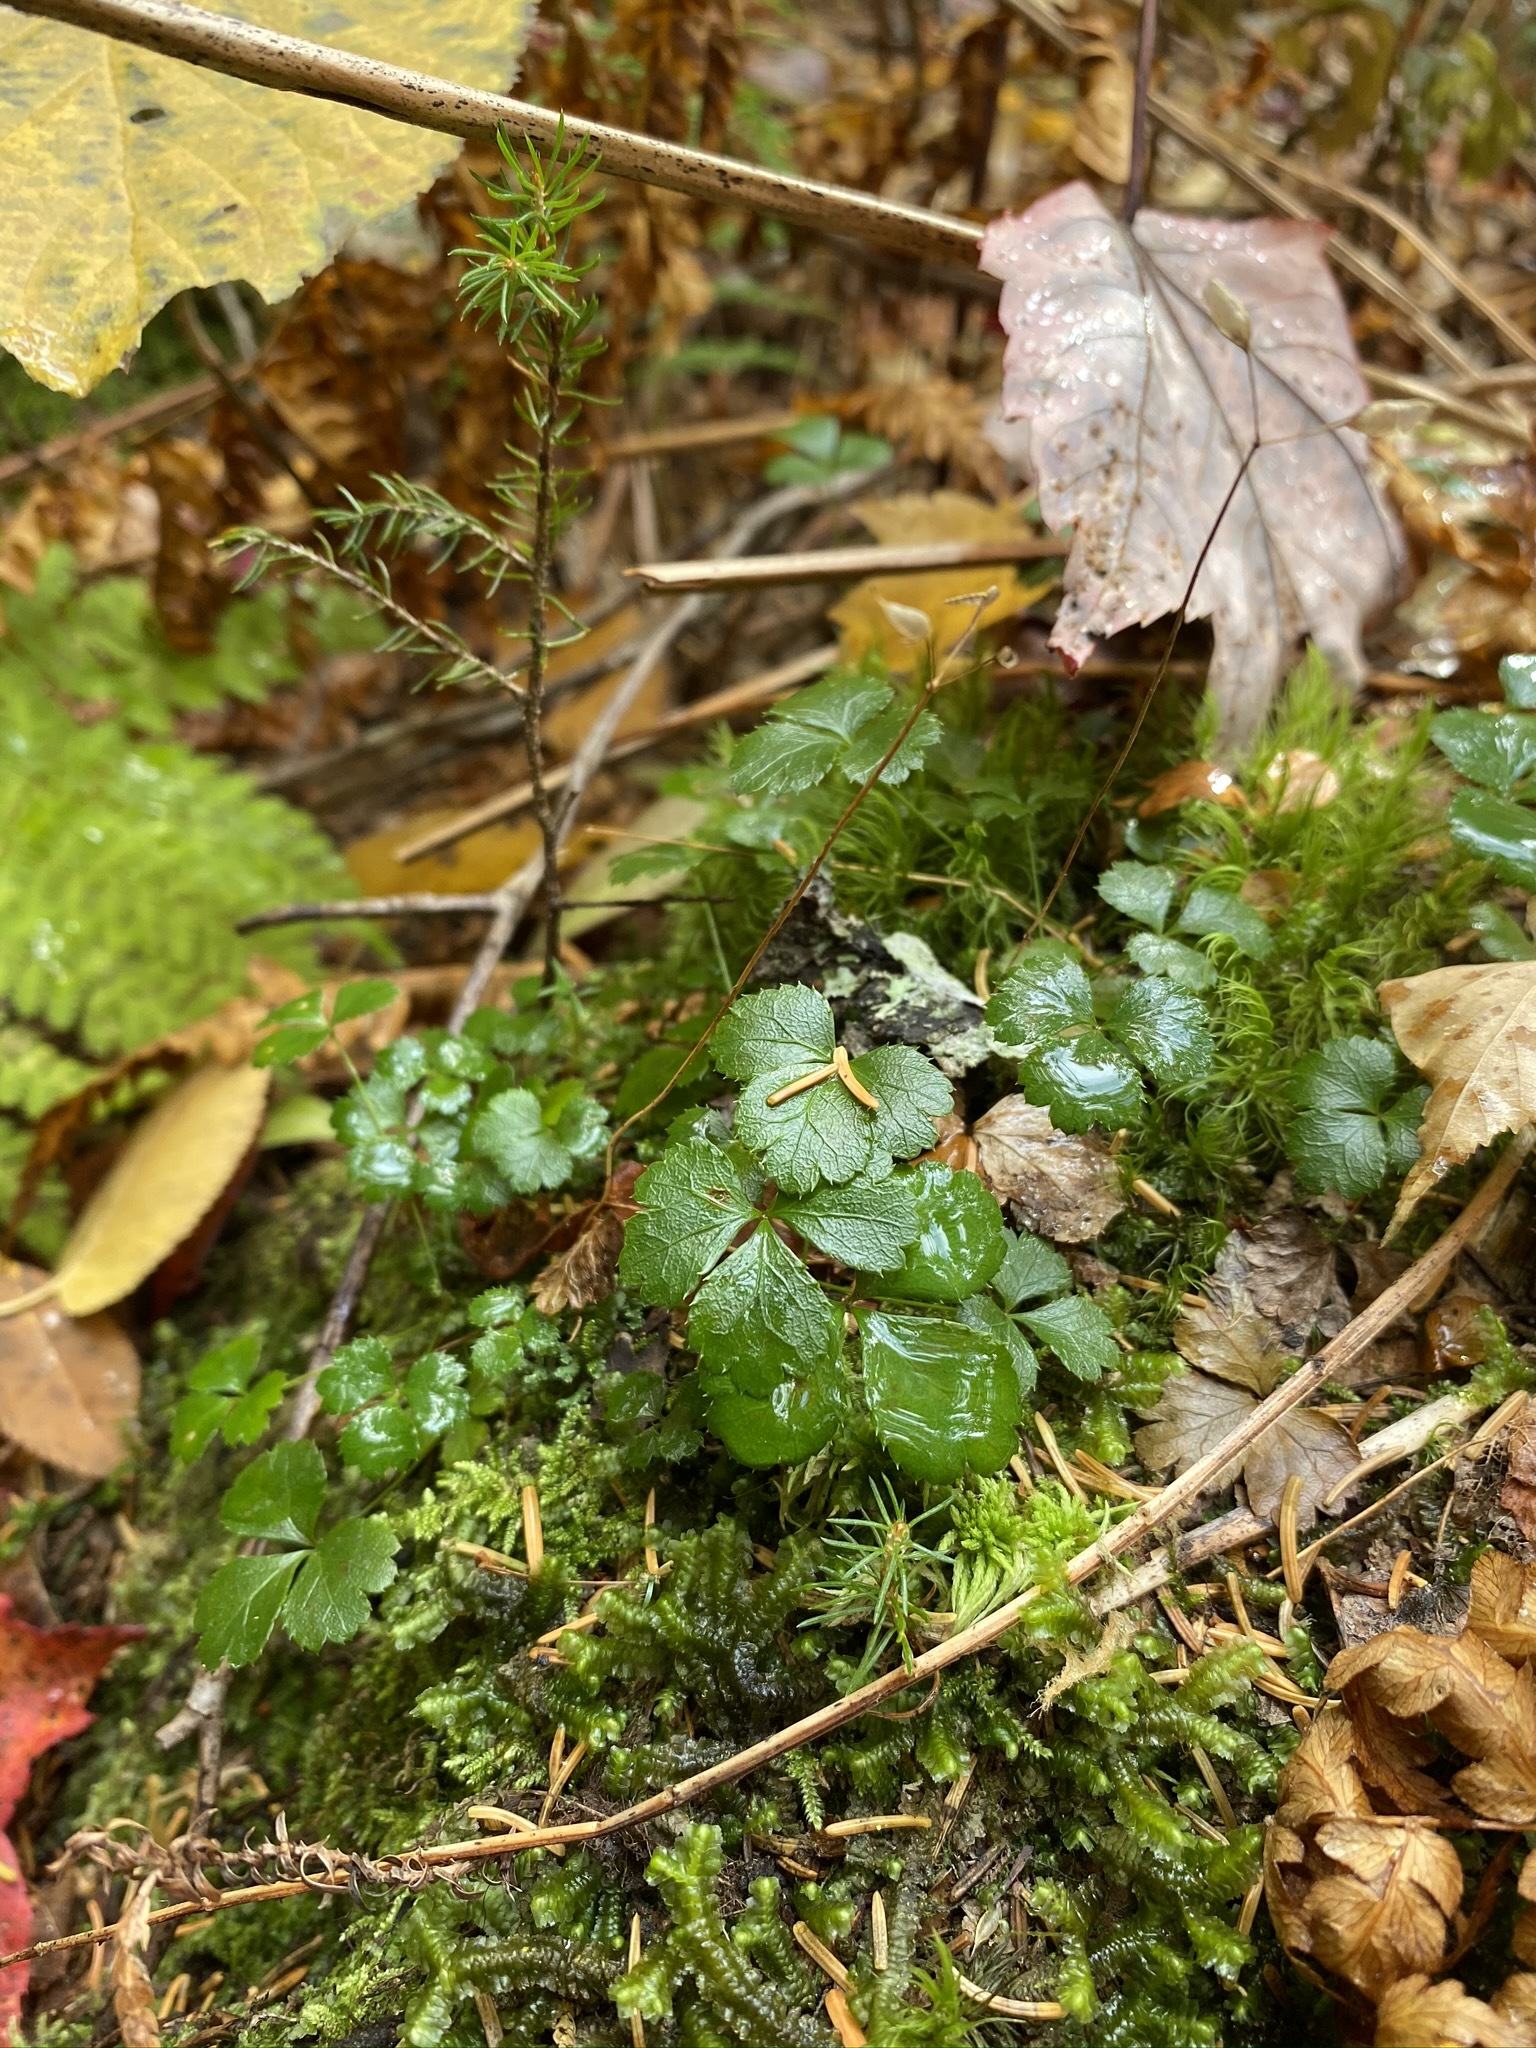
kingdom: Plantae
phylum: Tracheophyta
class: Magnoliopsida
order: Ranunculales
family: Ranunculaceae
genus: Coptis
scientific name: Coptis trifolia
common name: Canker-root
